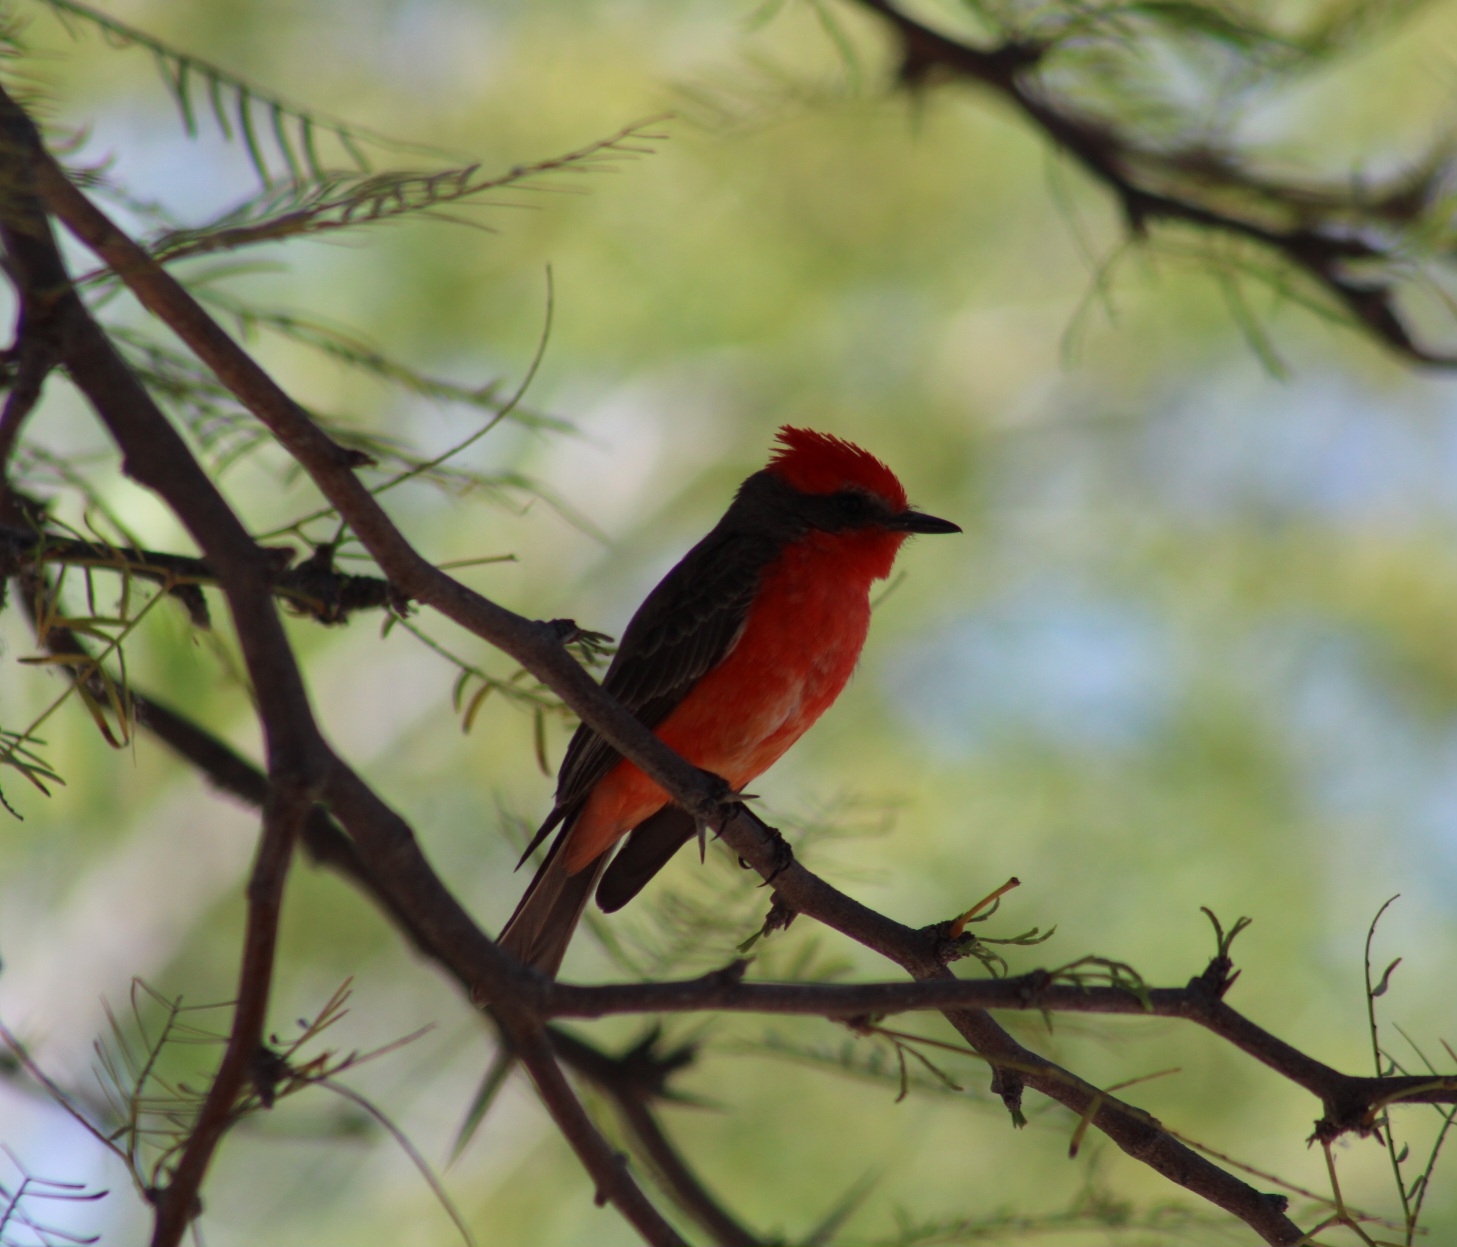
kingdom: Animalia
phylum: Chordata
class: Aves
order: Passeriformes
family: Tyrannidae
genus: Pyrocephalus
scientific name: Pyrocephalus rubinus
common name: Vermilion flycatcher
